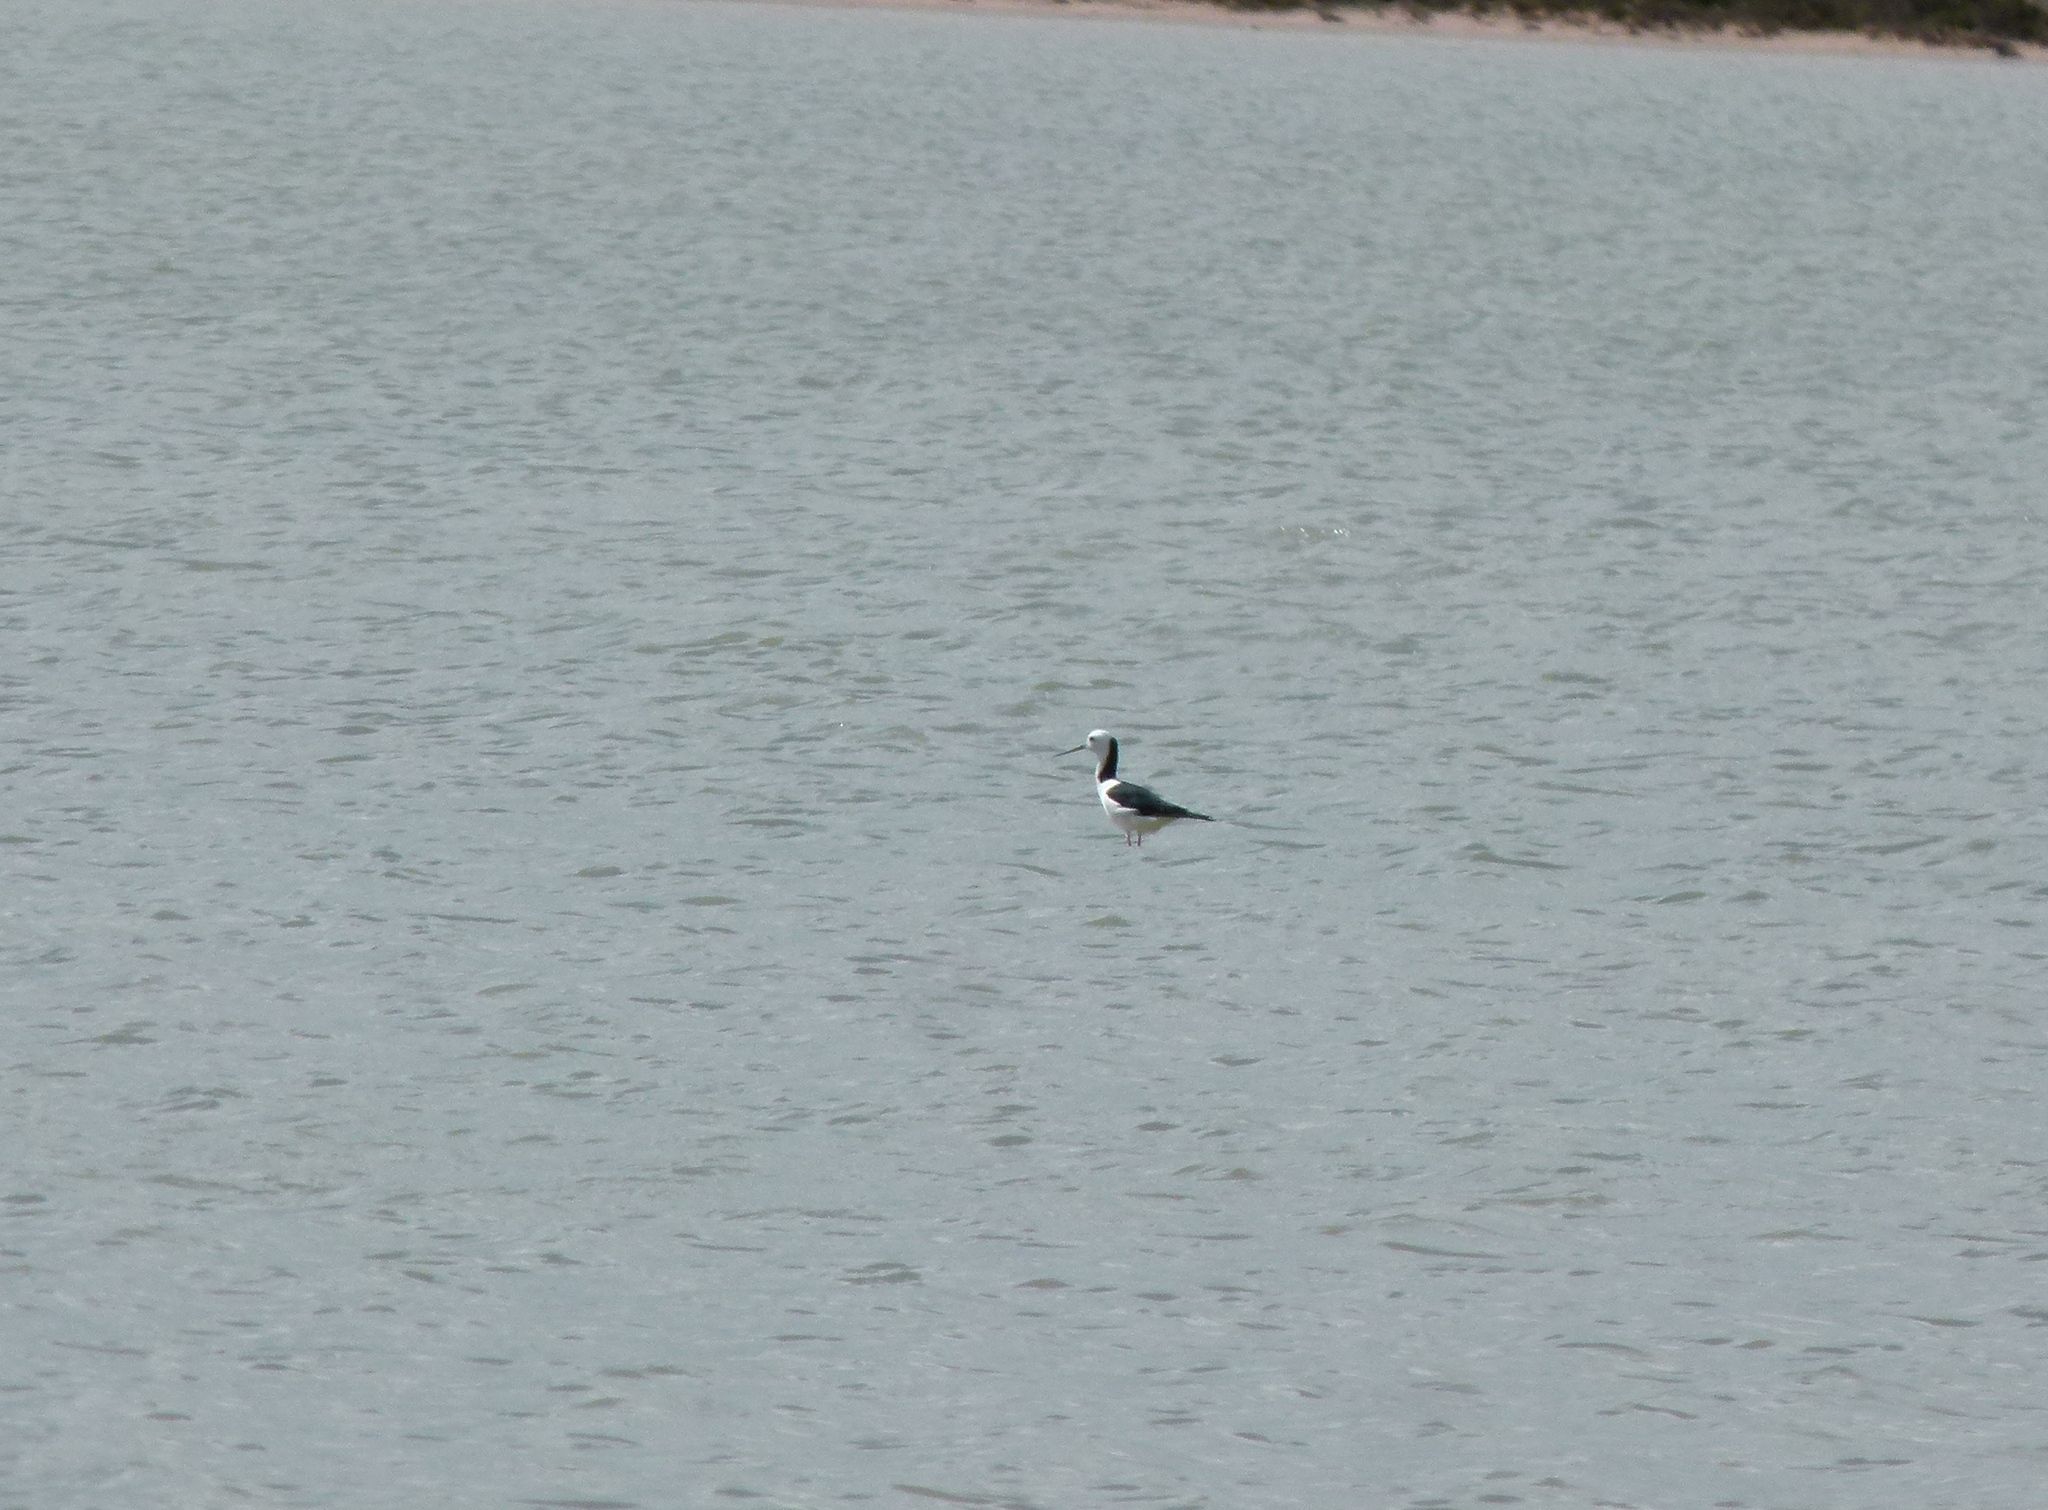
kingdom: Animalia
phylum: Chordata
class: Aves
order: Charadriiformes
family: Recurvirostridae
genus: Himantopus
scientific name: Himantopus leucocephalus
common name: White-headed stilt
